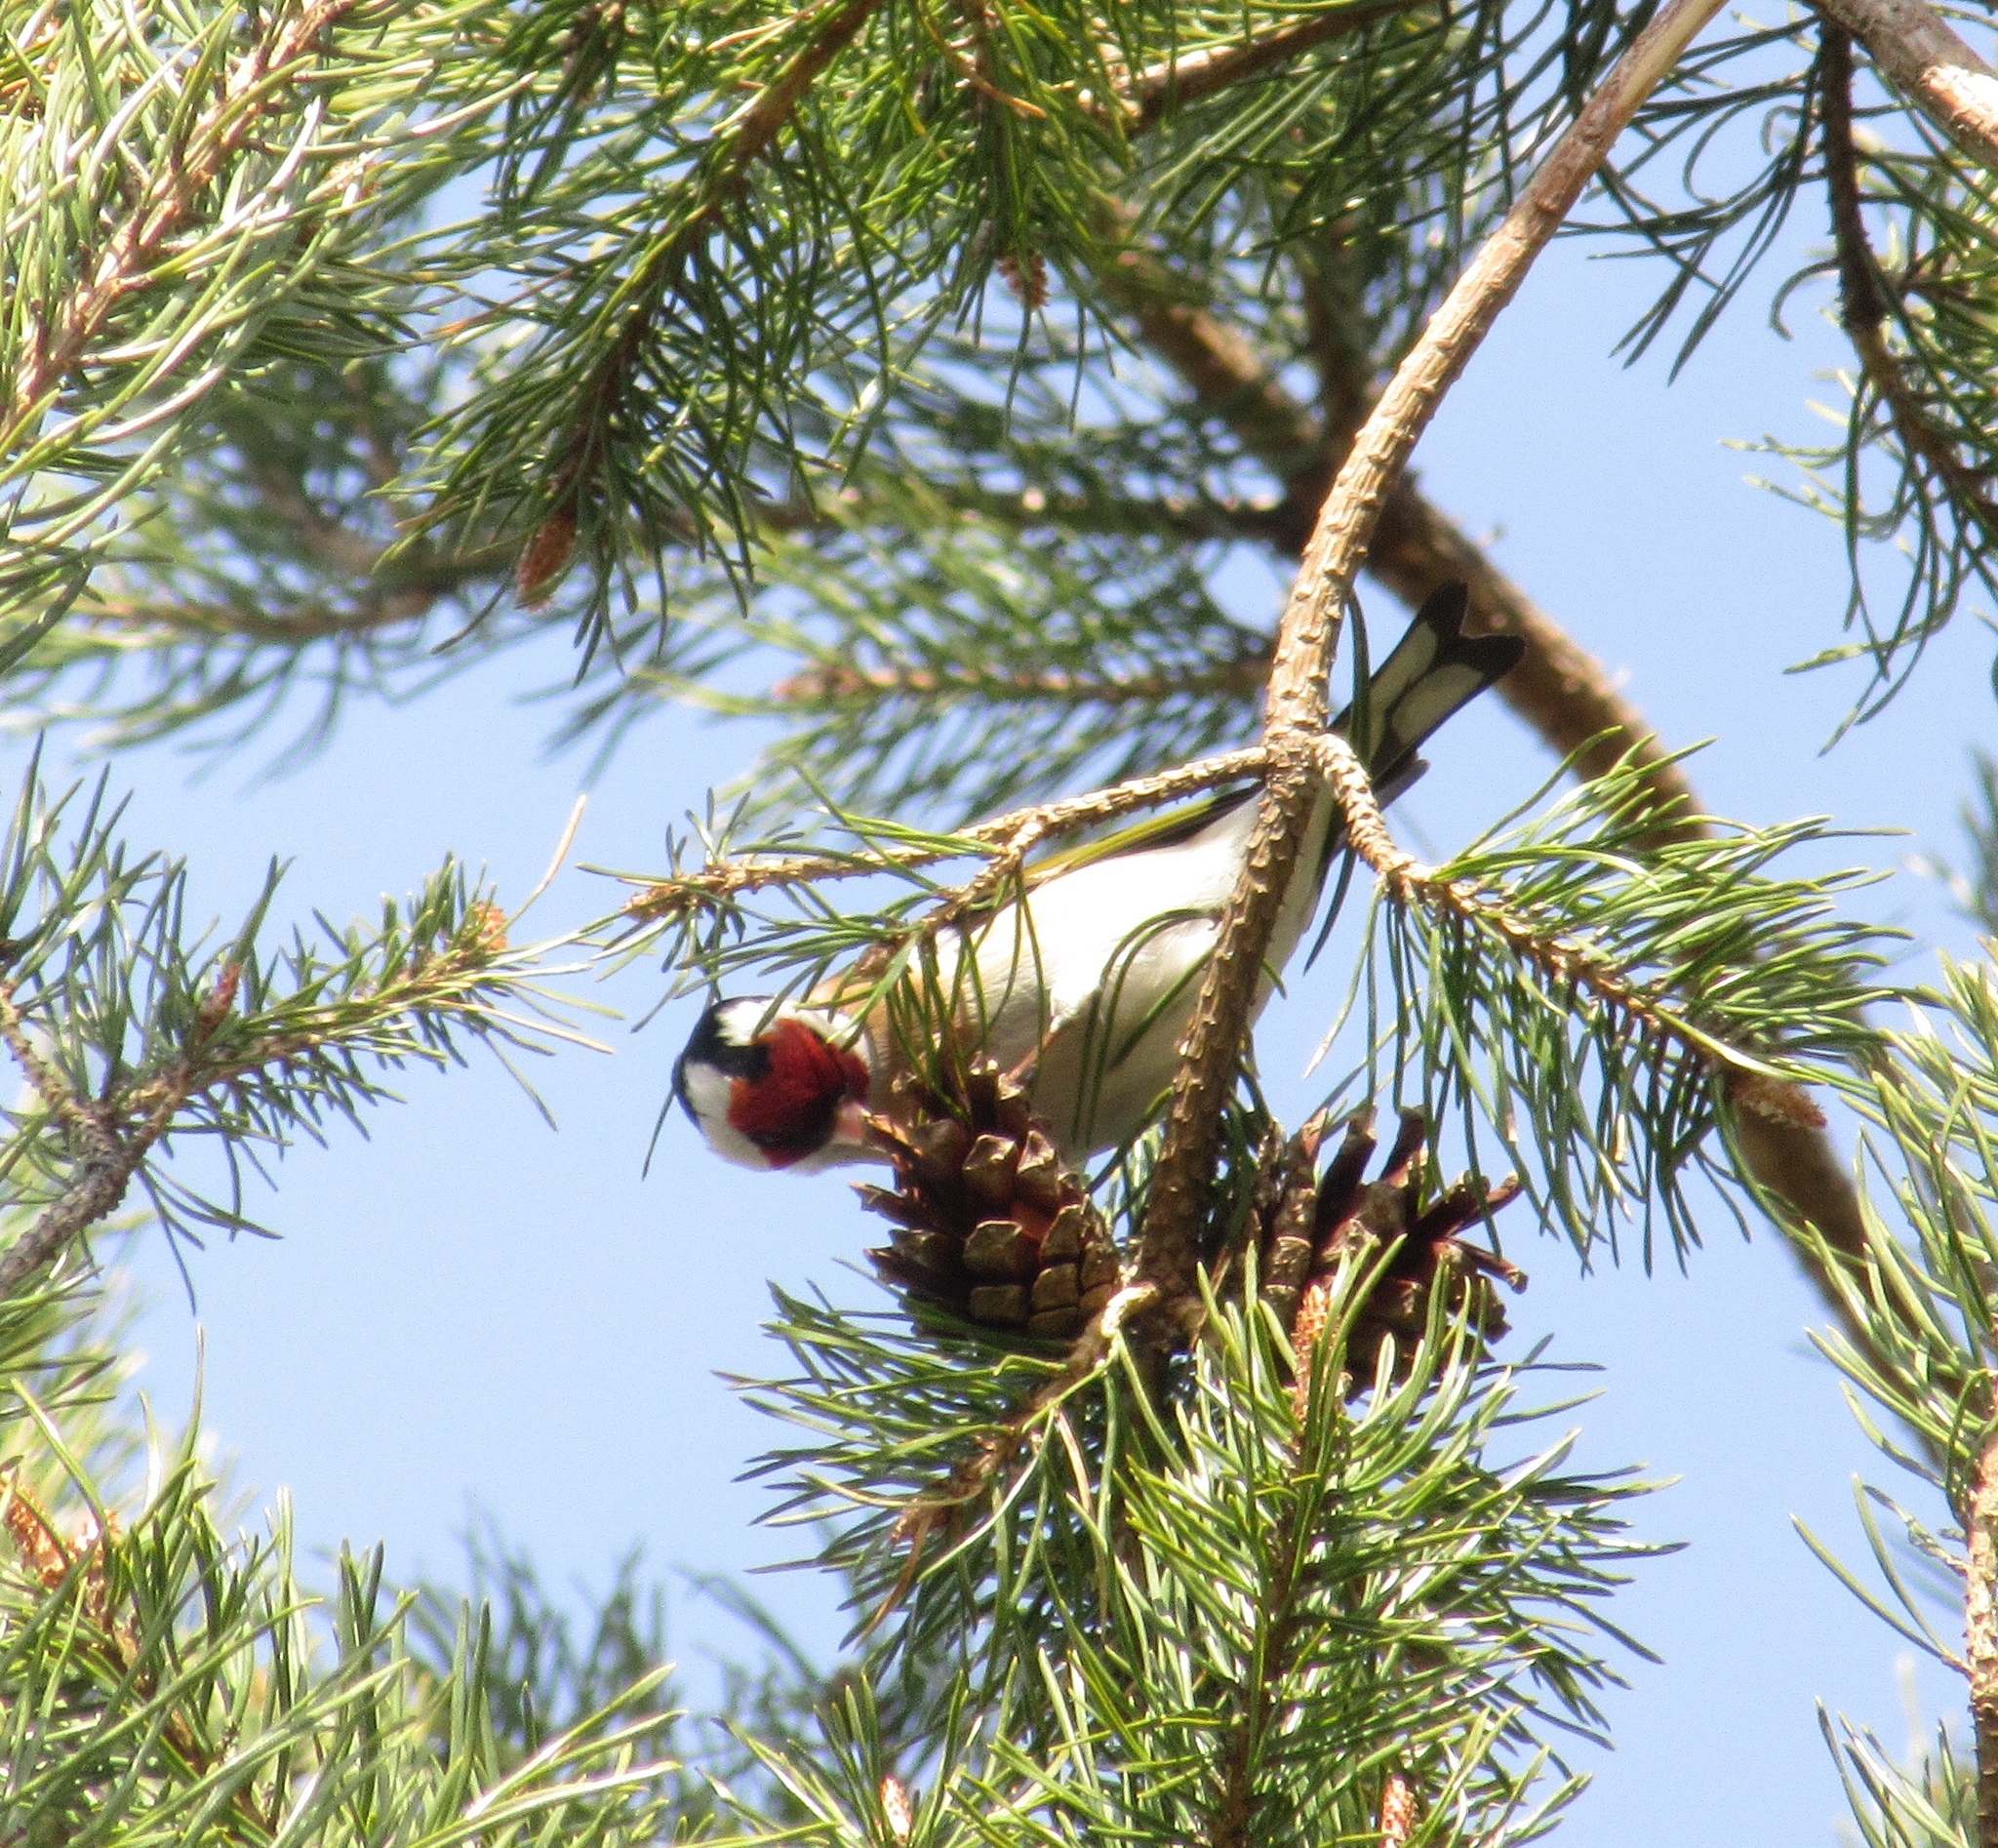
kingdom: Animalia
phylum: Chordata
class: Aves
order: Passeriformes
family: Fringillidae
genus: Carduelis
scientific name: Carduelis carduelis
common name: European goldfinch
